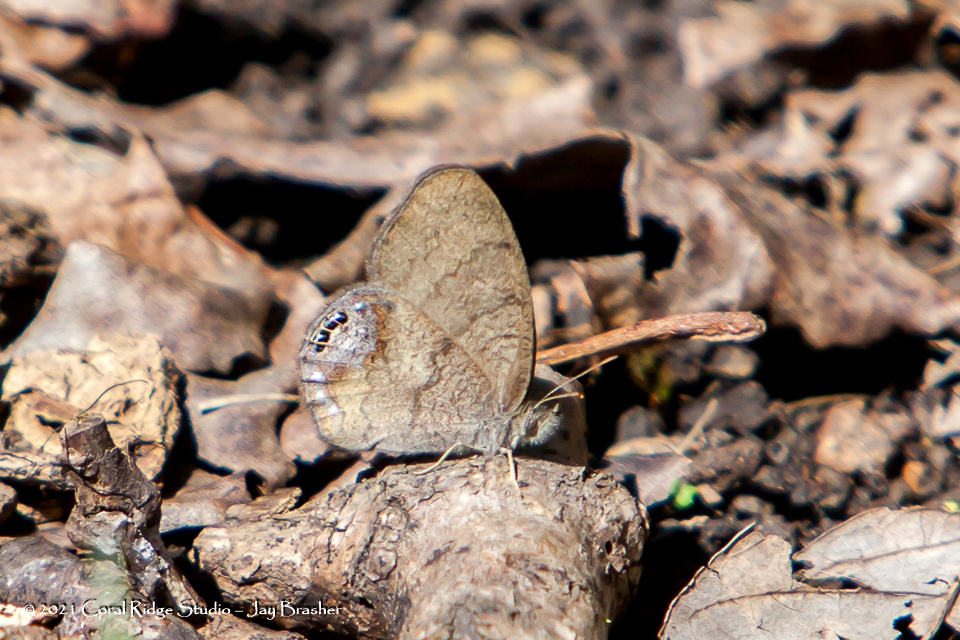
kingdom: Animalia
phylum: Arthropoda
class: Insecta
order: Lepidoptera
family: Nymphalidae
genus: Euptychia
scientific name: Euptychia cornelius
